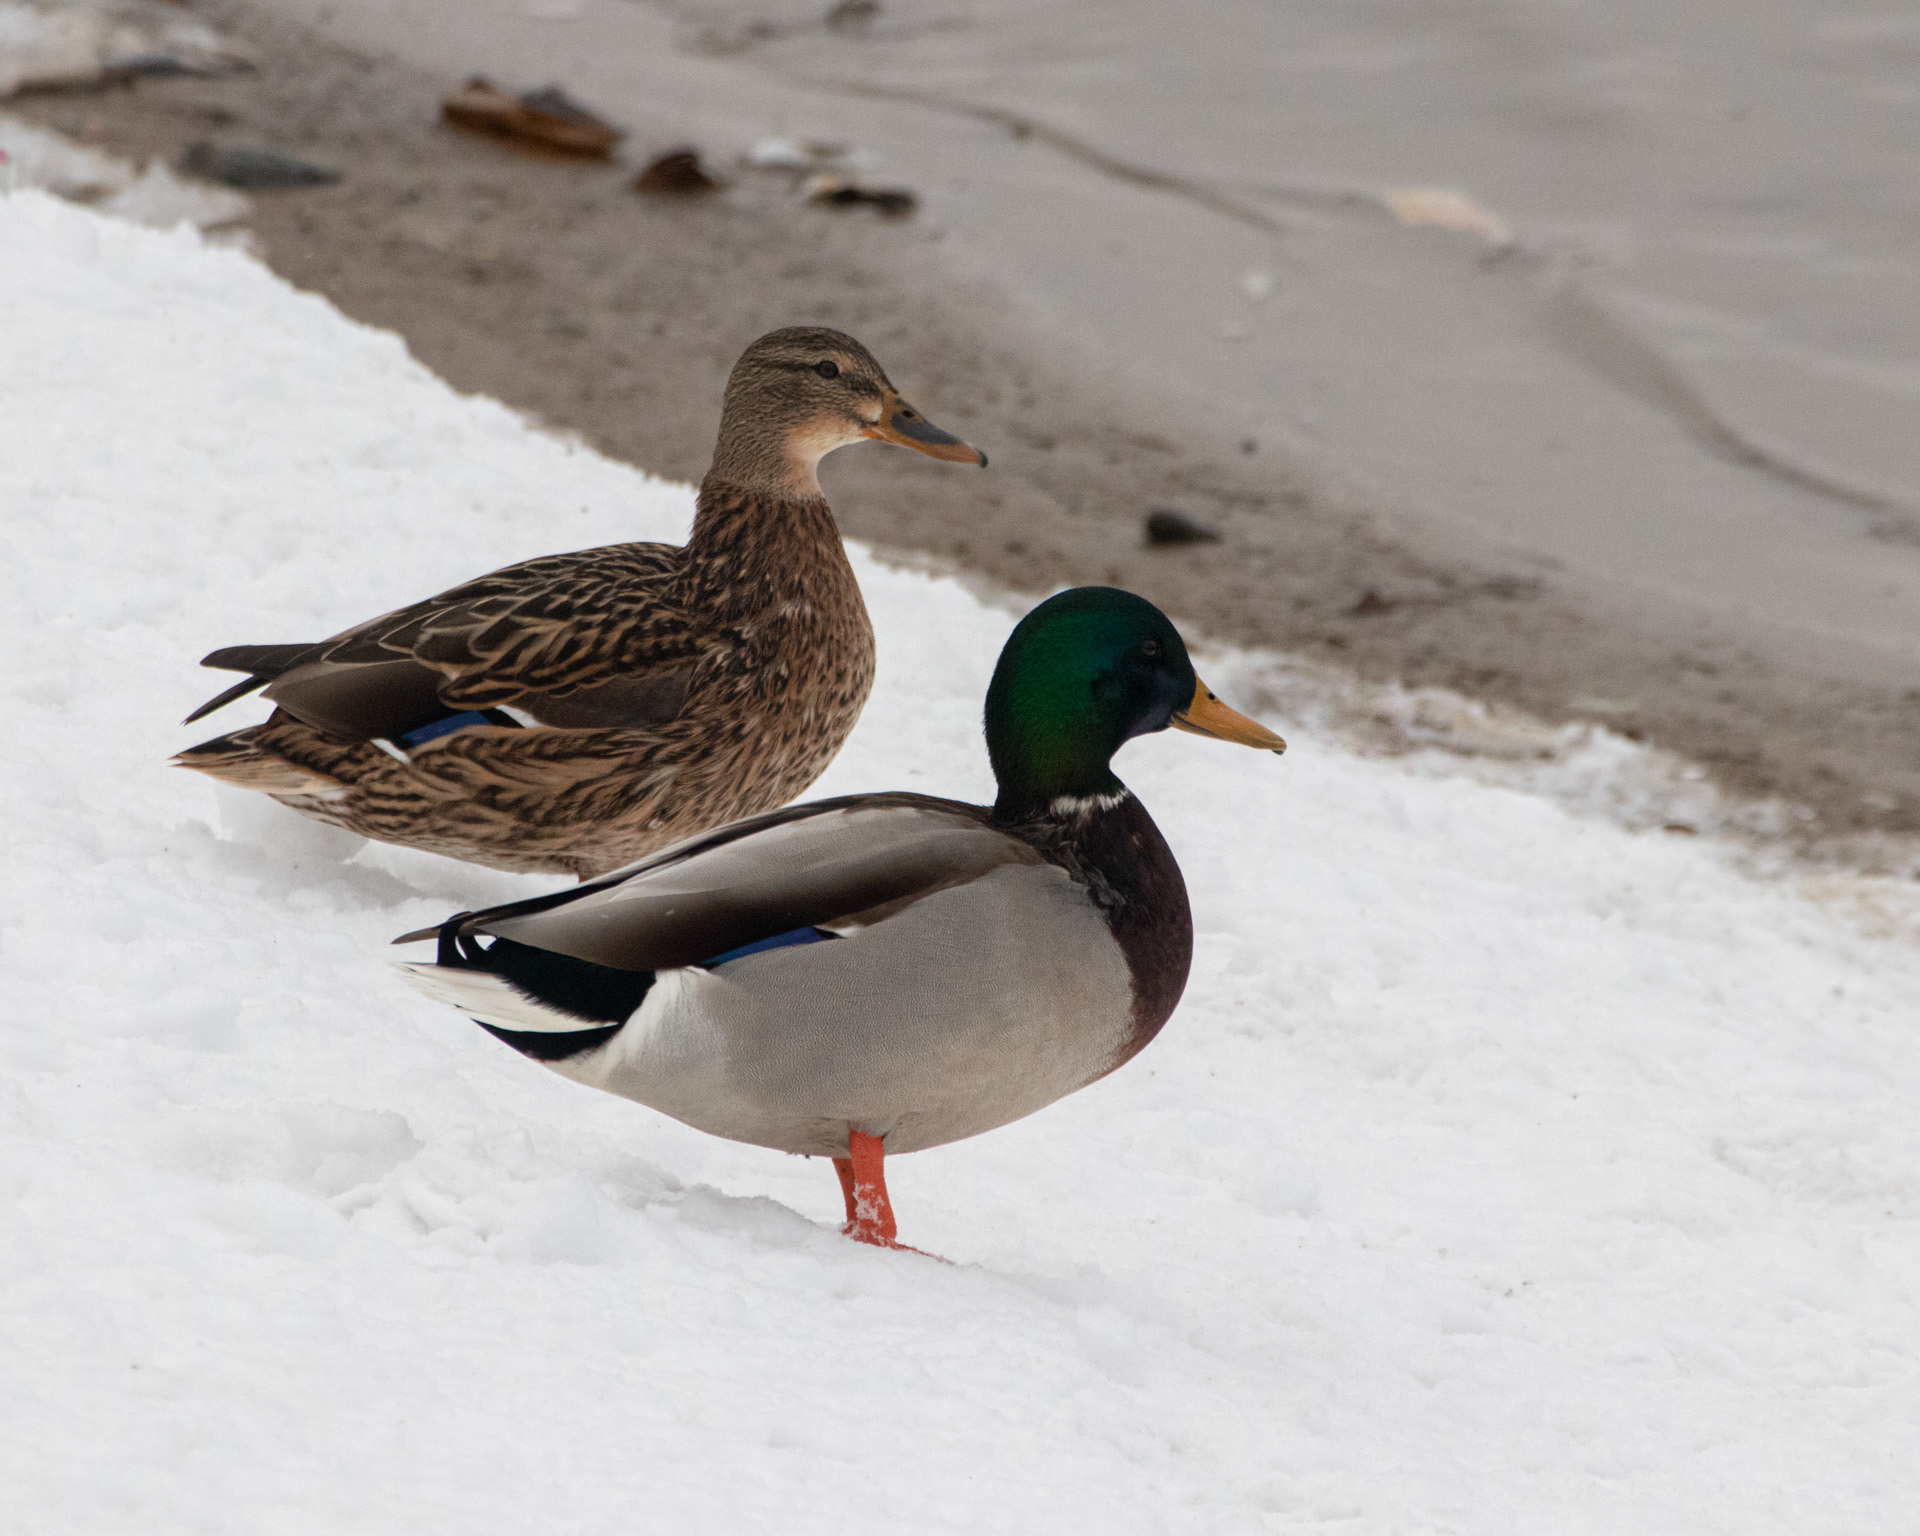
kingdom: Animalia
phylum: Chordata
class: Aves
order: Anseriformes
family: Anatidae
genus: Anas
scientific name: Anas platyrhynchos
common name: Mallard
